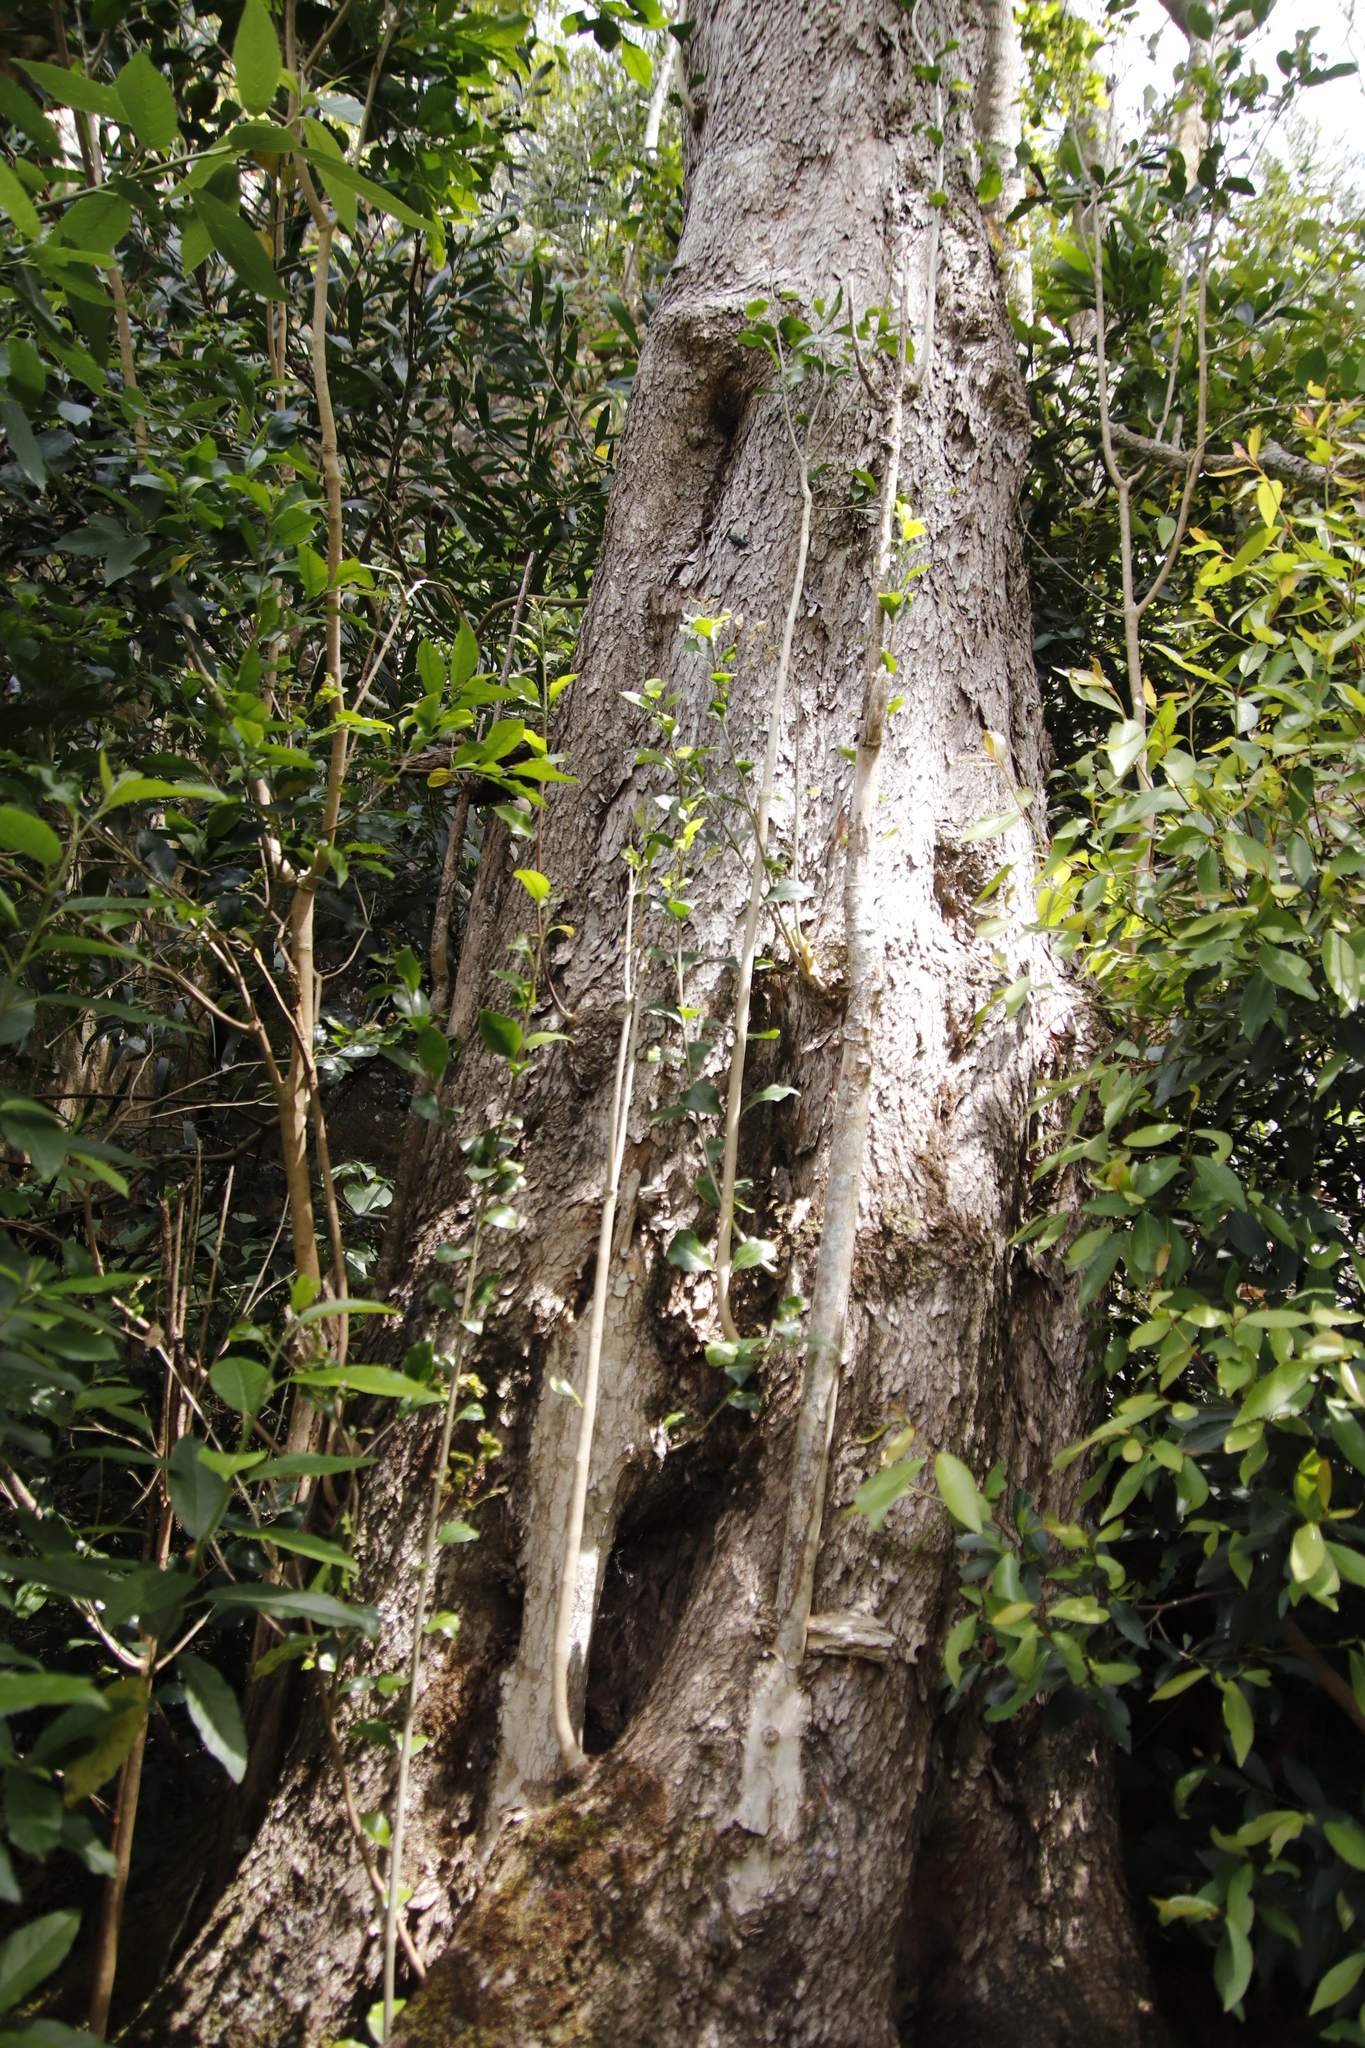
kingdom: Plantae
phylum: Tracheophyta
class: Magnoliopsida
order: Myrtales
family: Penaeaceae
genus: Olinia
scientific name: Olinia ventosa
